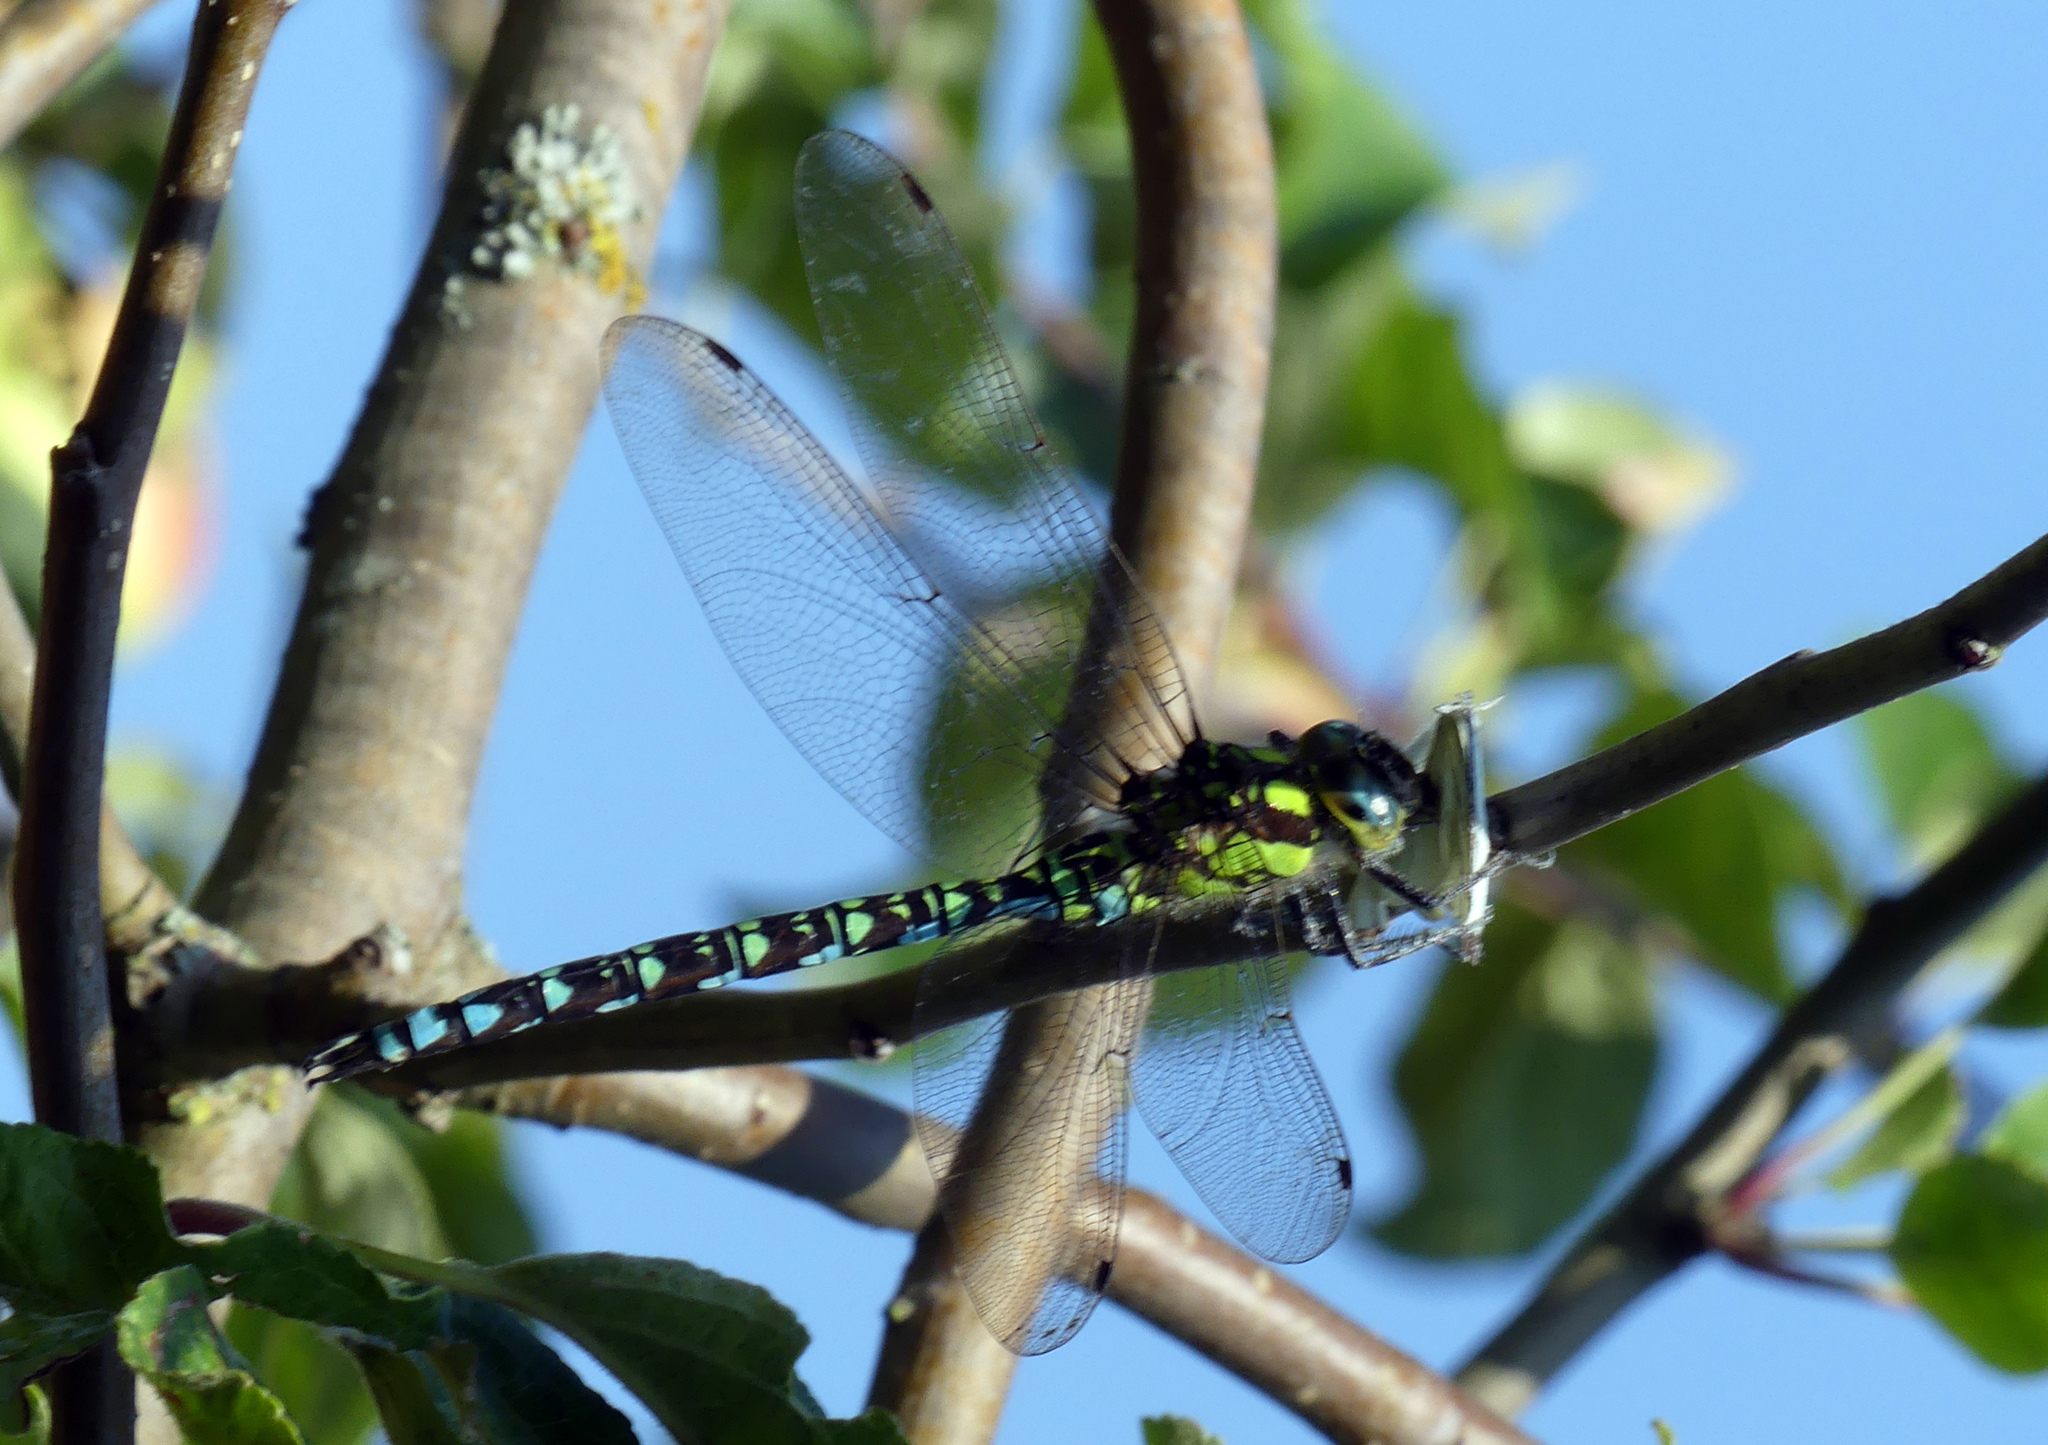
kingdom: Animalia
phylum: Arthropoda
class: Insecta
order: Odonata
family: Aeshnidae
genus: Aeshna
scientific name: Aeshna cyanea
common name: Southern hawker
